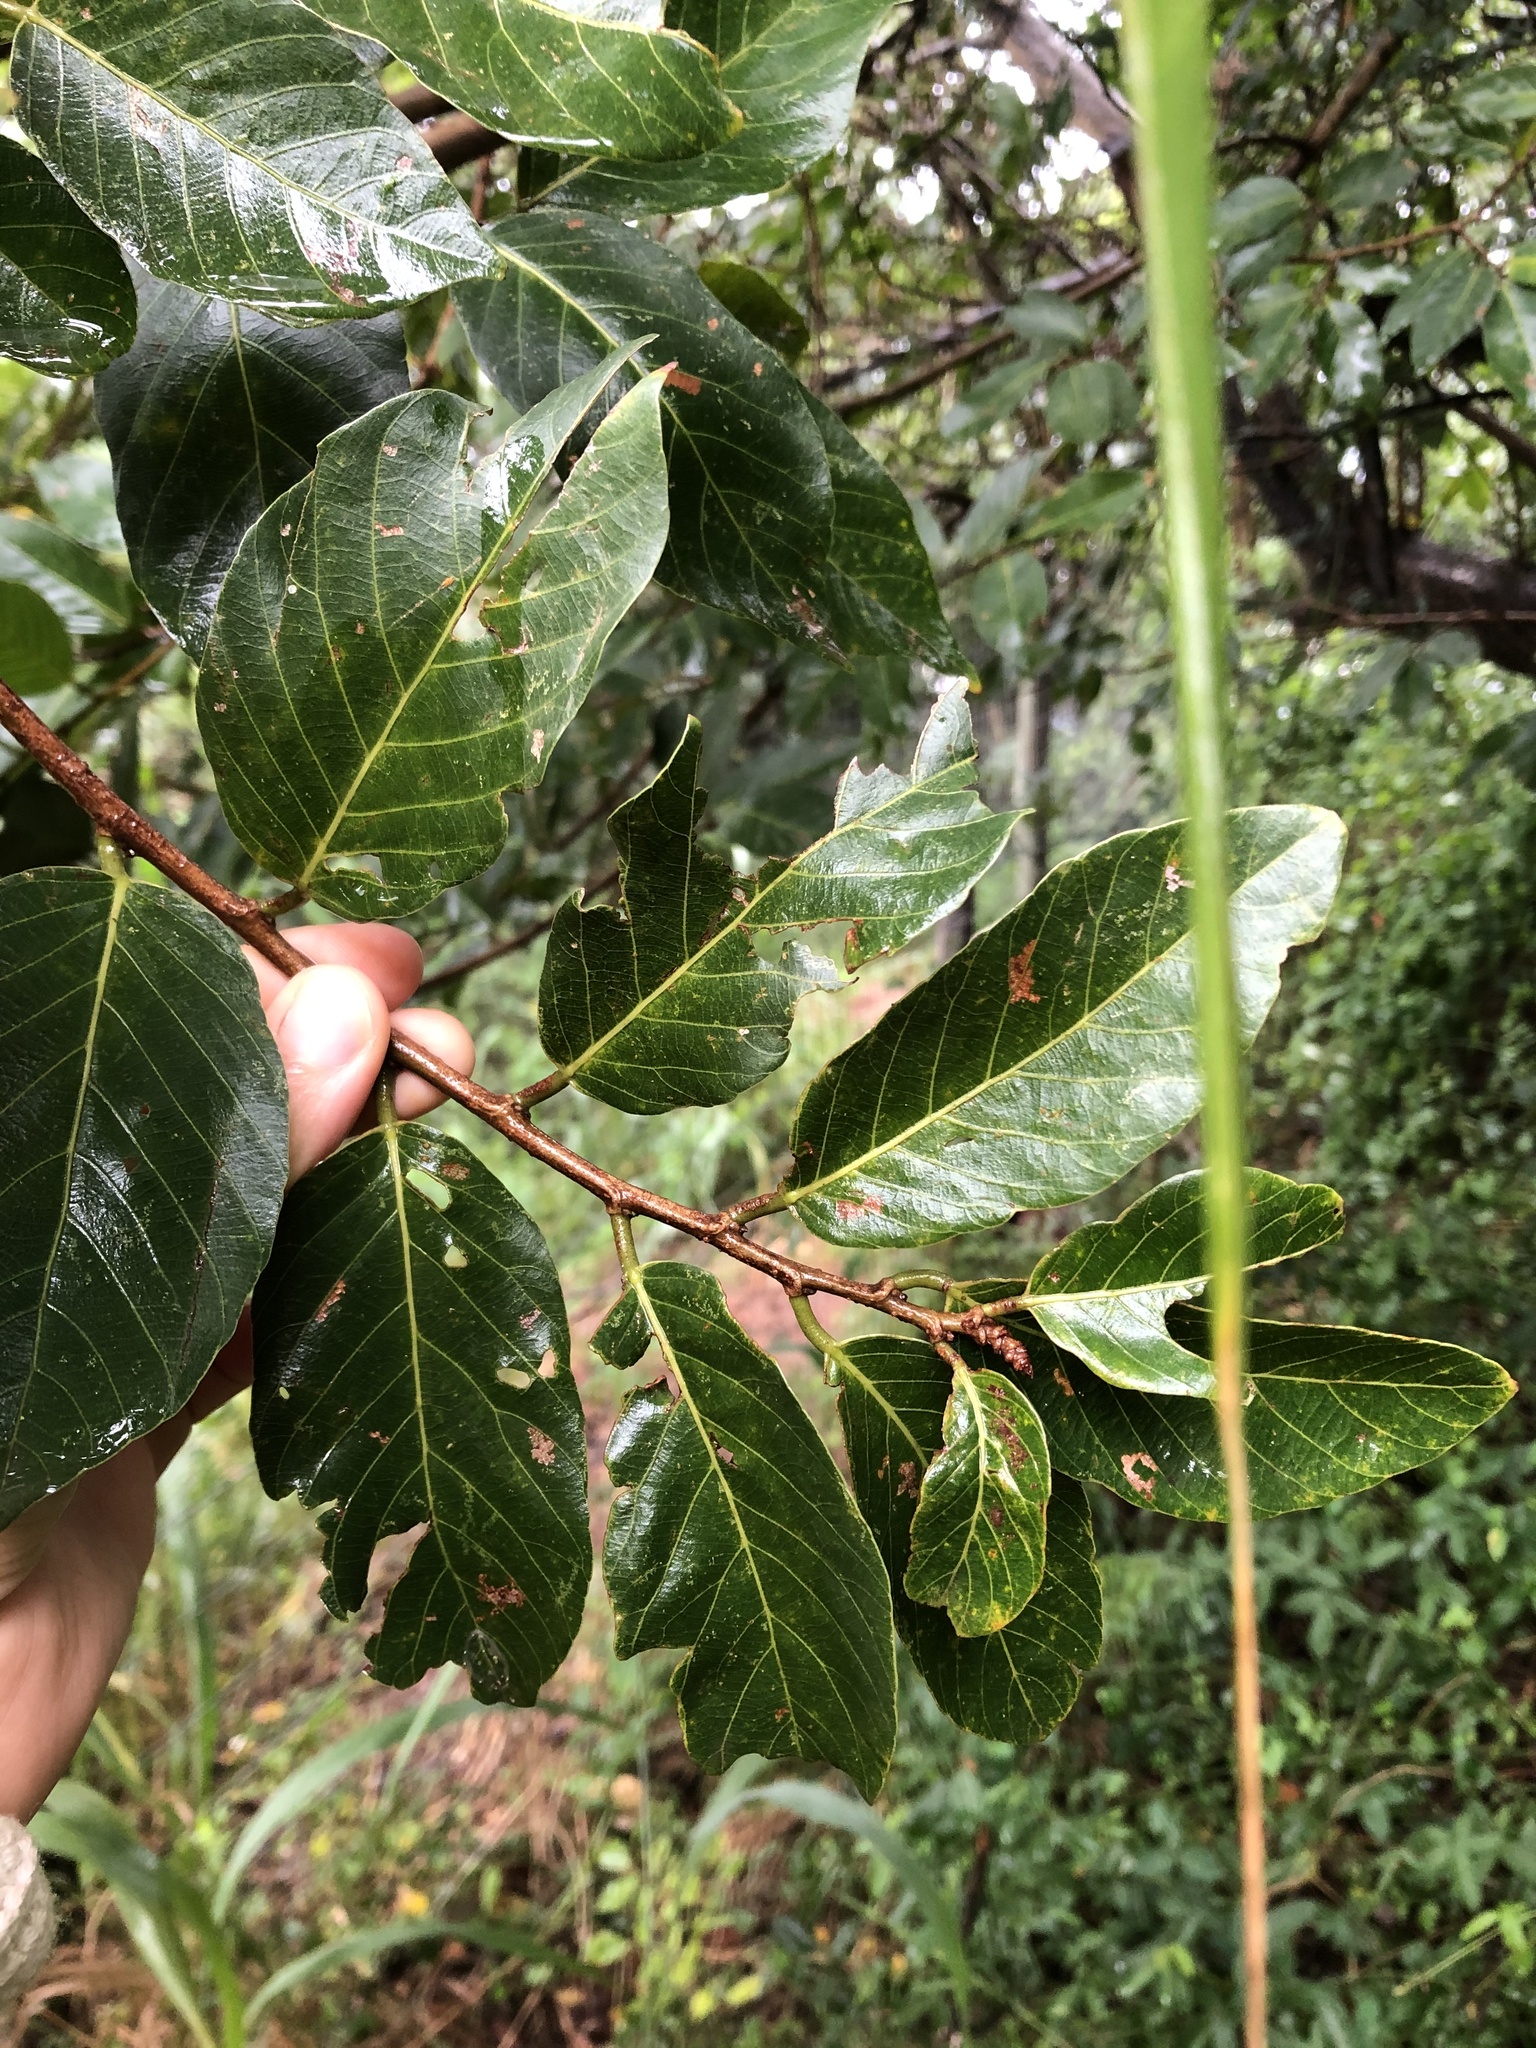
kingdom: Plantae
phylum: Tracheophyta
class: Magnoliopsida
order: Malpighiales
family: Phyllanthaceae
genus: Bridelia
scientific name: Bridelia micrantha
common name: Bridelia
